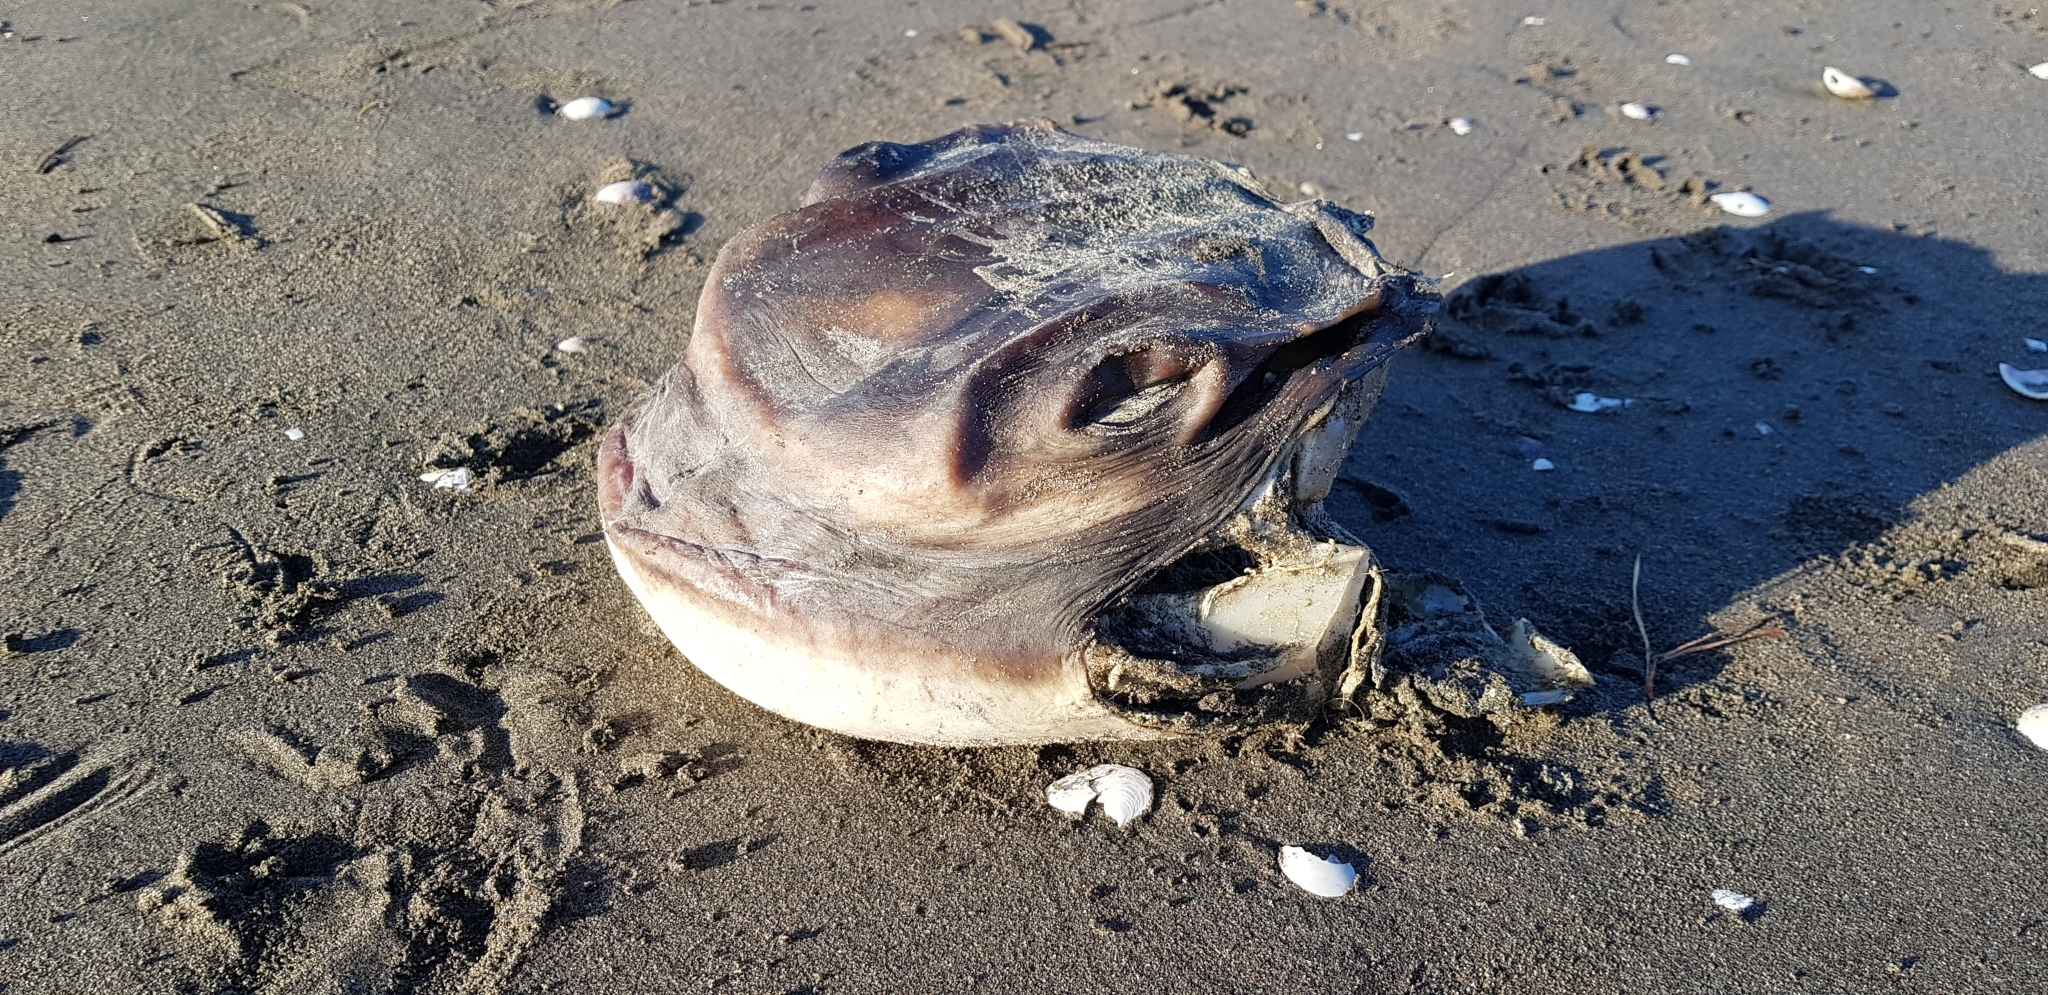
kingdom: Animalia
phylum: Chordata
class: Elasmobranchii
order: Myliobatiformes
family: Myliobatidae
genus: Myliobatis
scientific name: Myliobatis tenuicaudatus
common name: Eagle ray
